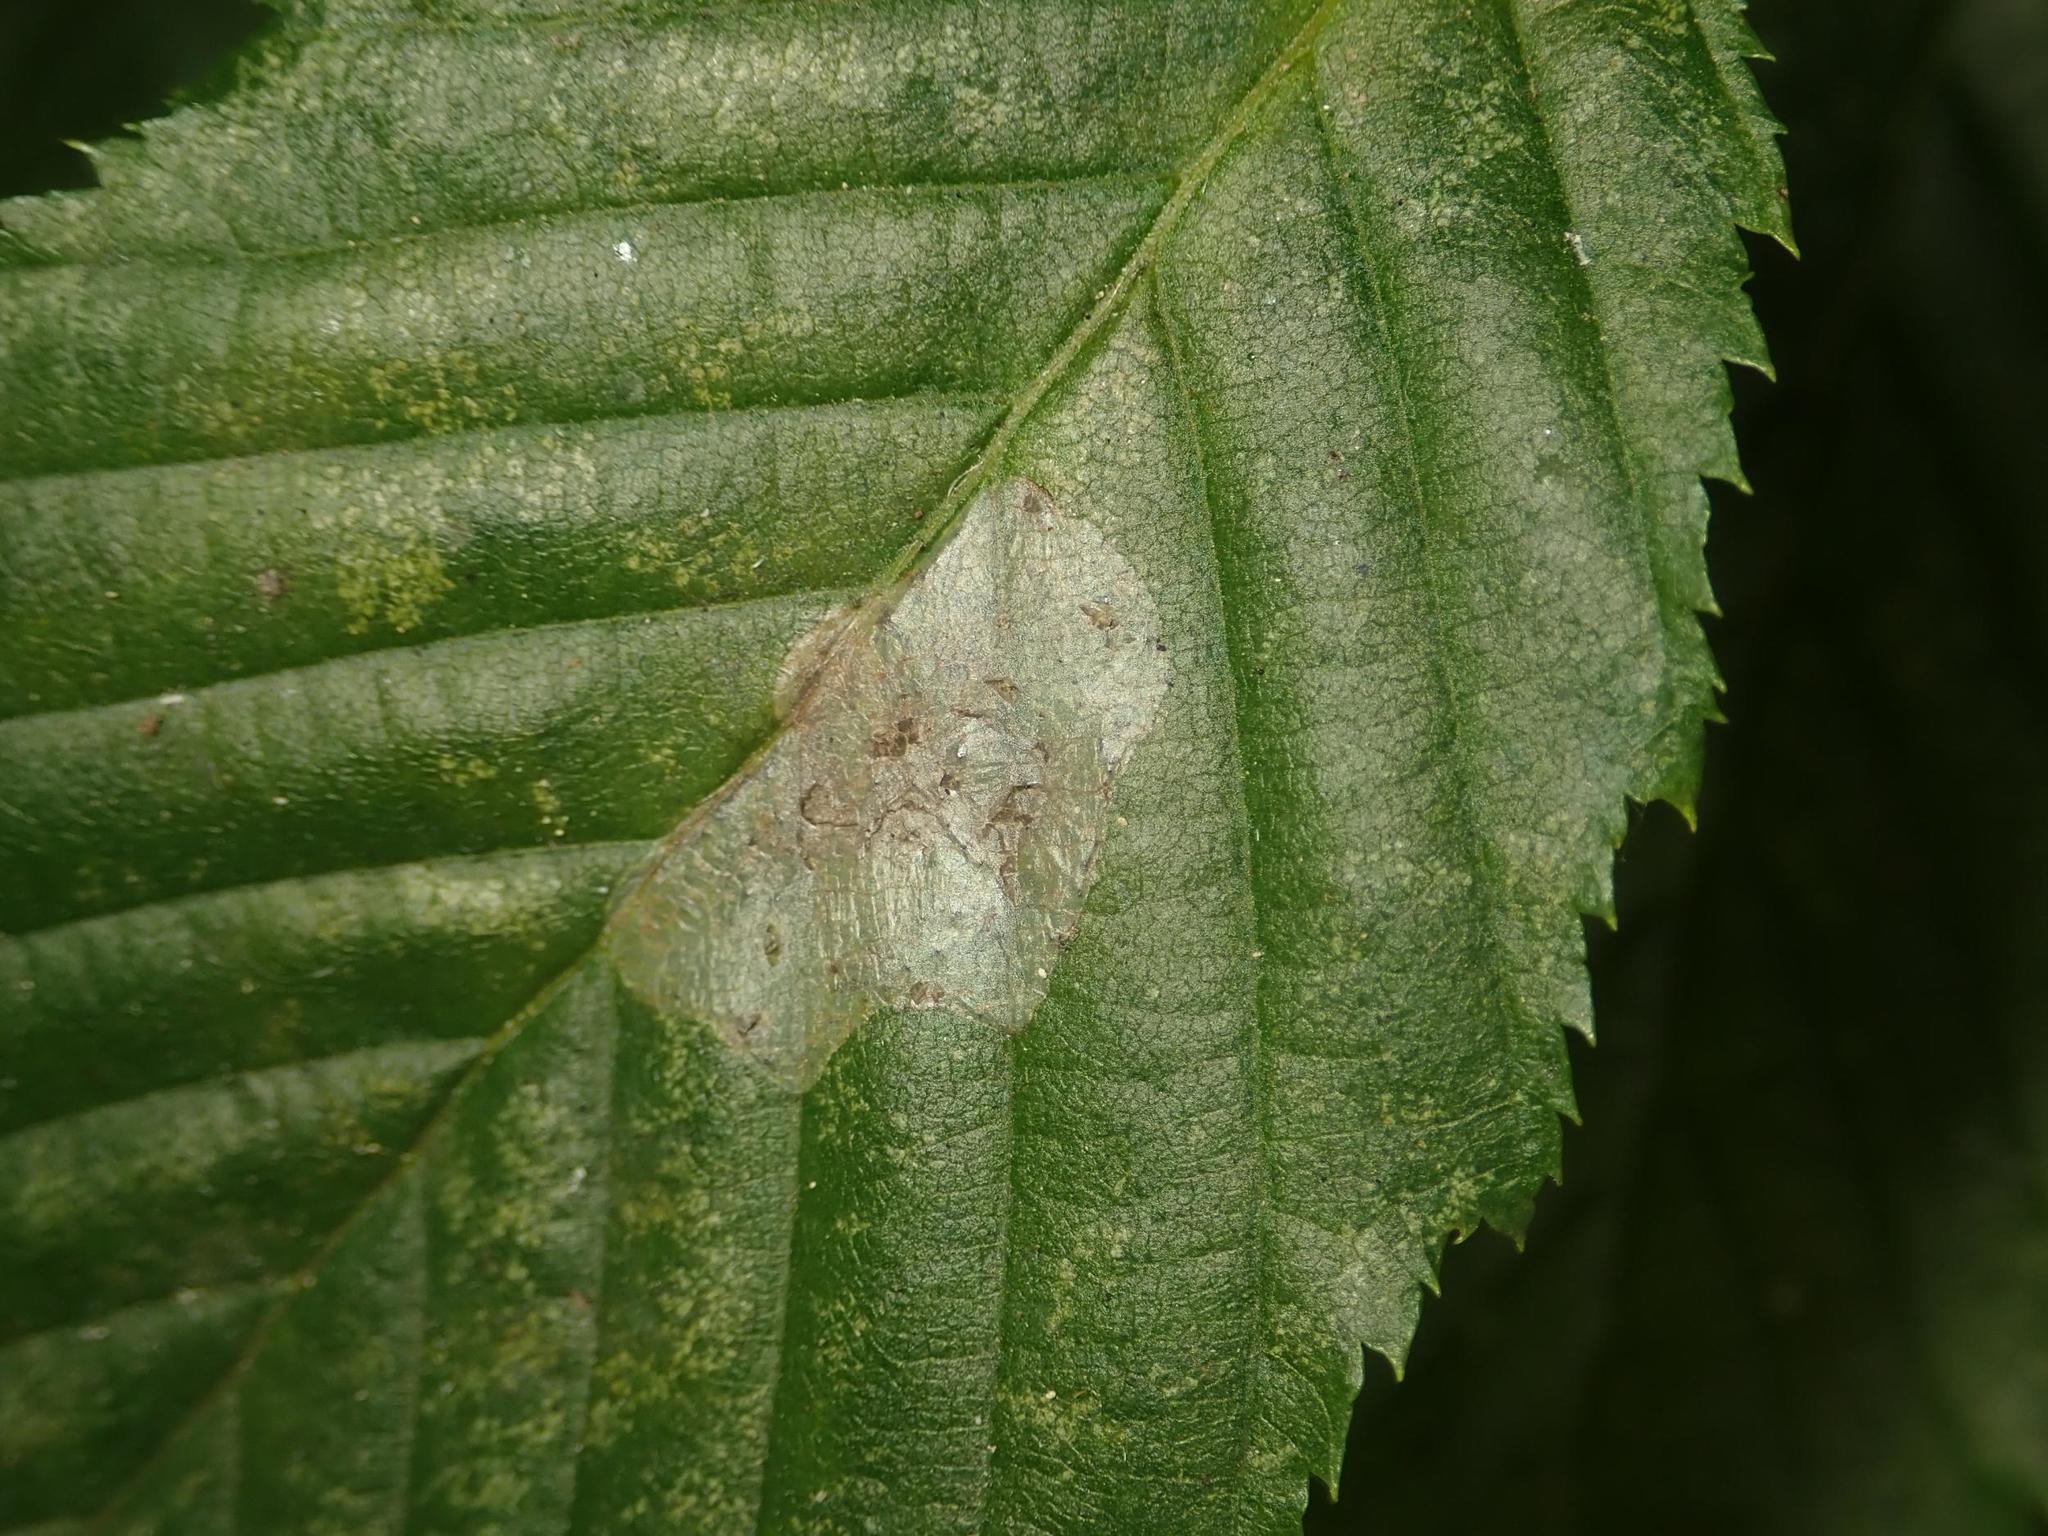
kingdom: Animalia
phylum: Arthropoda
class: Insecta
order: Lepidoptera
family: Gracillariidae
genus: Phyllonorycter
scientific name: Phyllonorycter esperella
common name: Dark hornbeam midget
